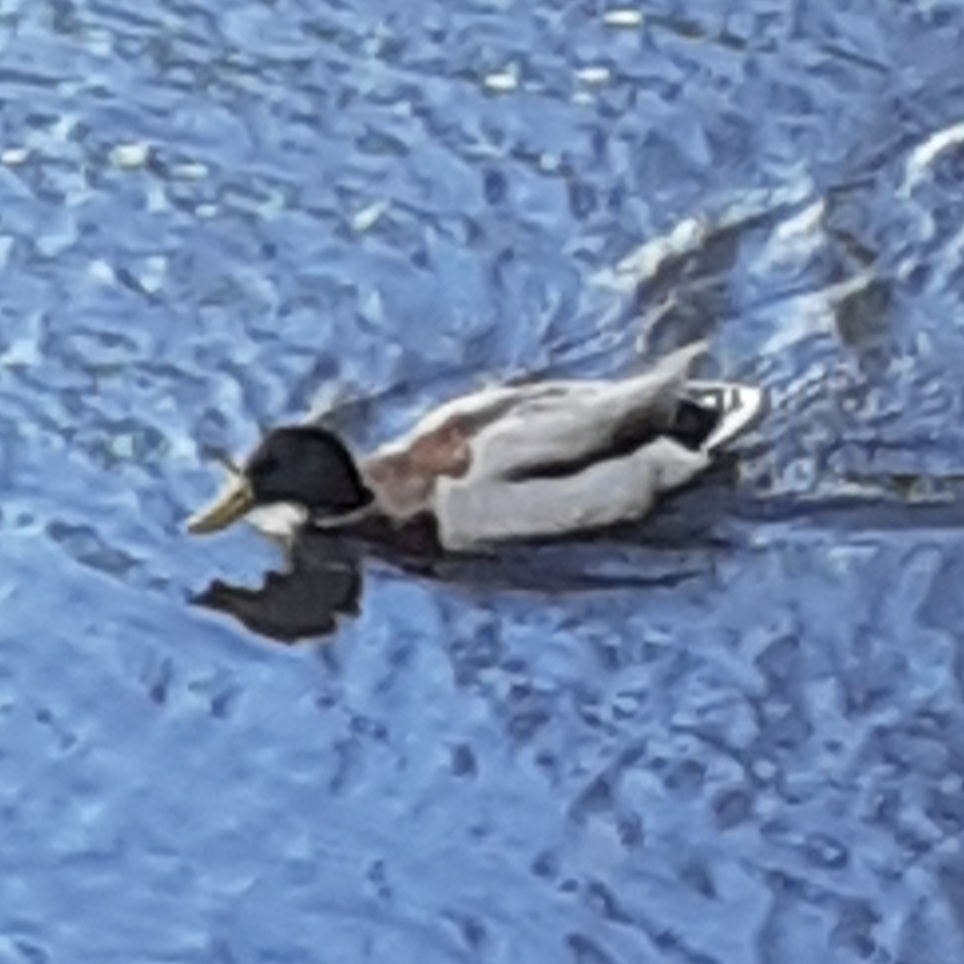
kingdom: Animalia
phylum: Chordata
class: Aves
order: Anseriformes
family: Anatidae
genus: Anas
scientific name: Anas platyrhynchos
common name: Mallard
